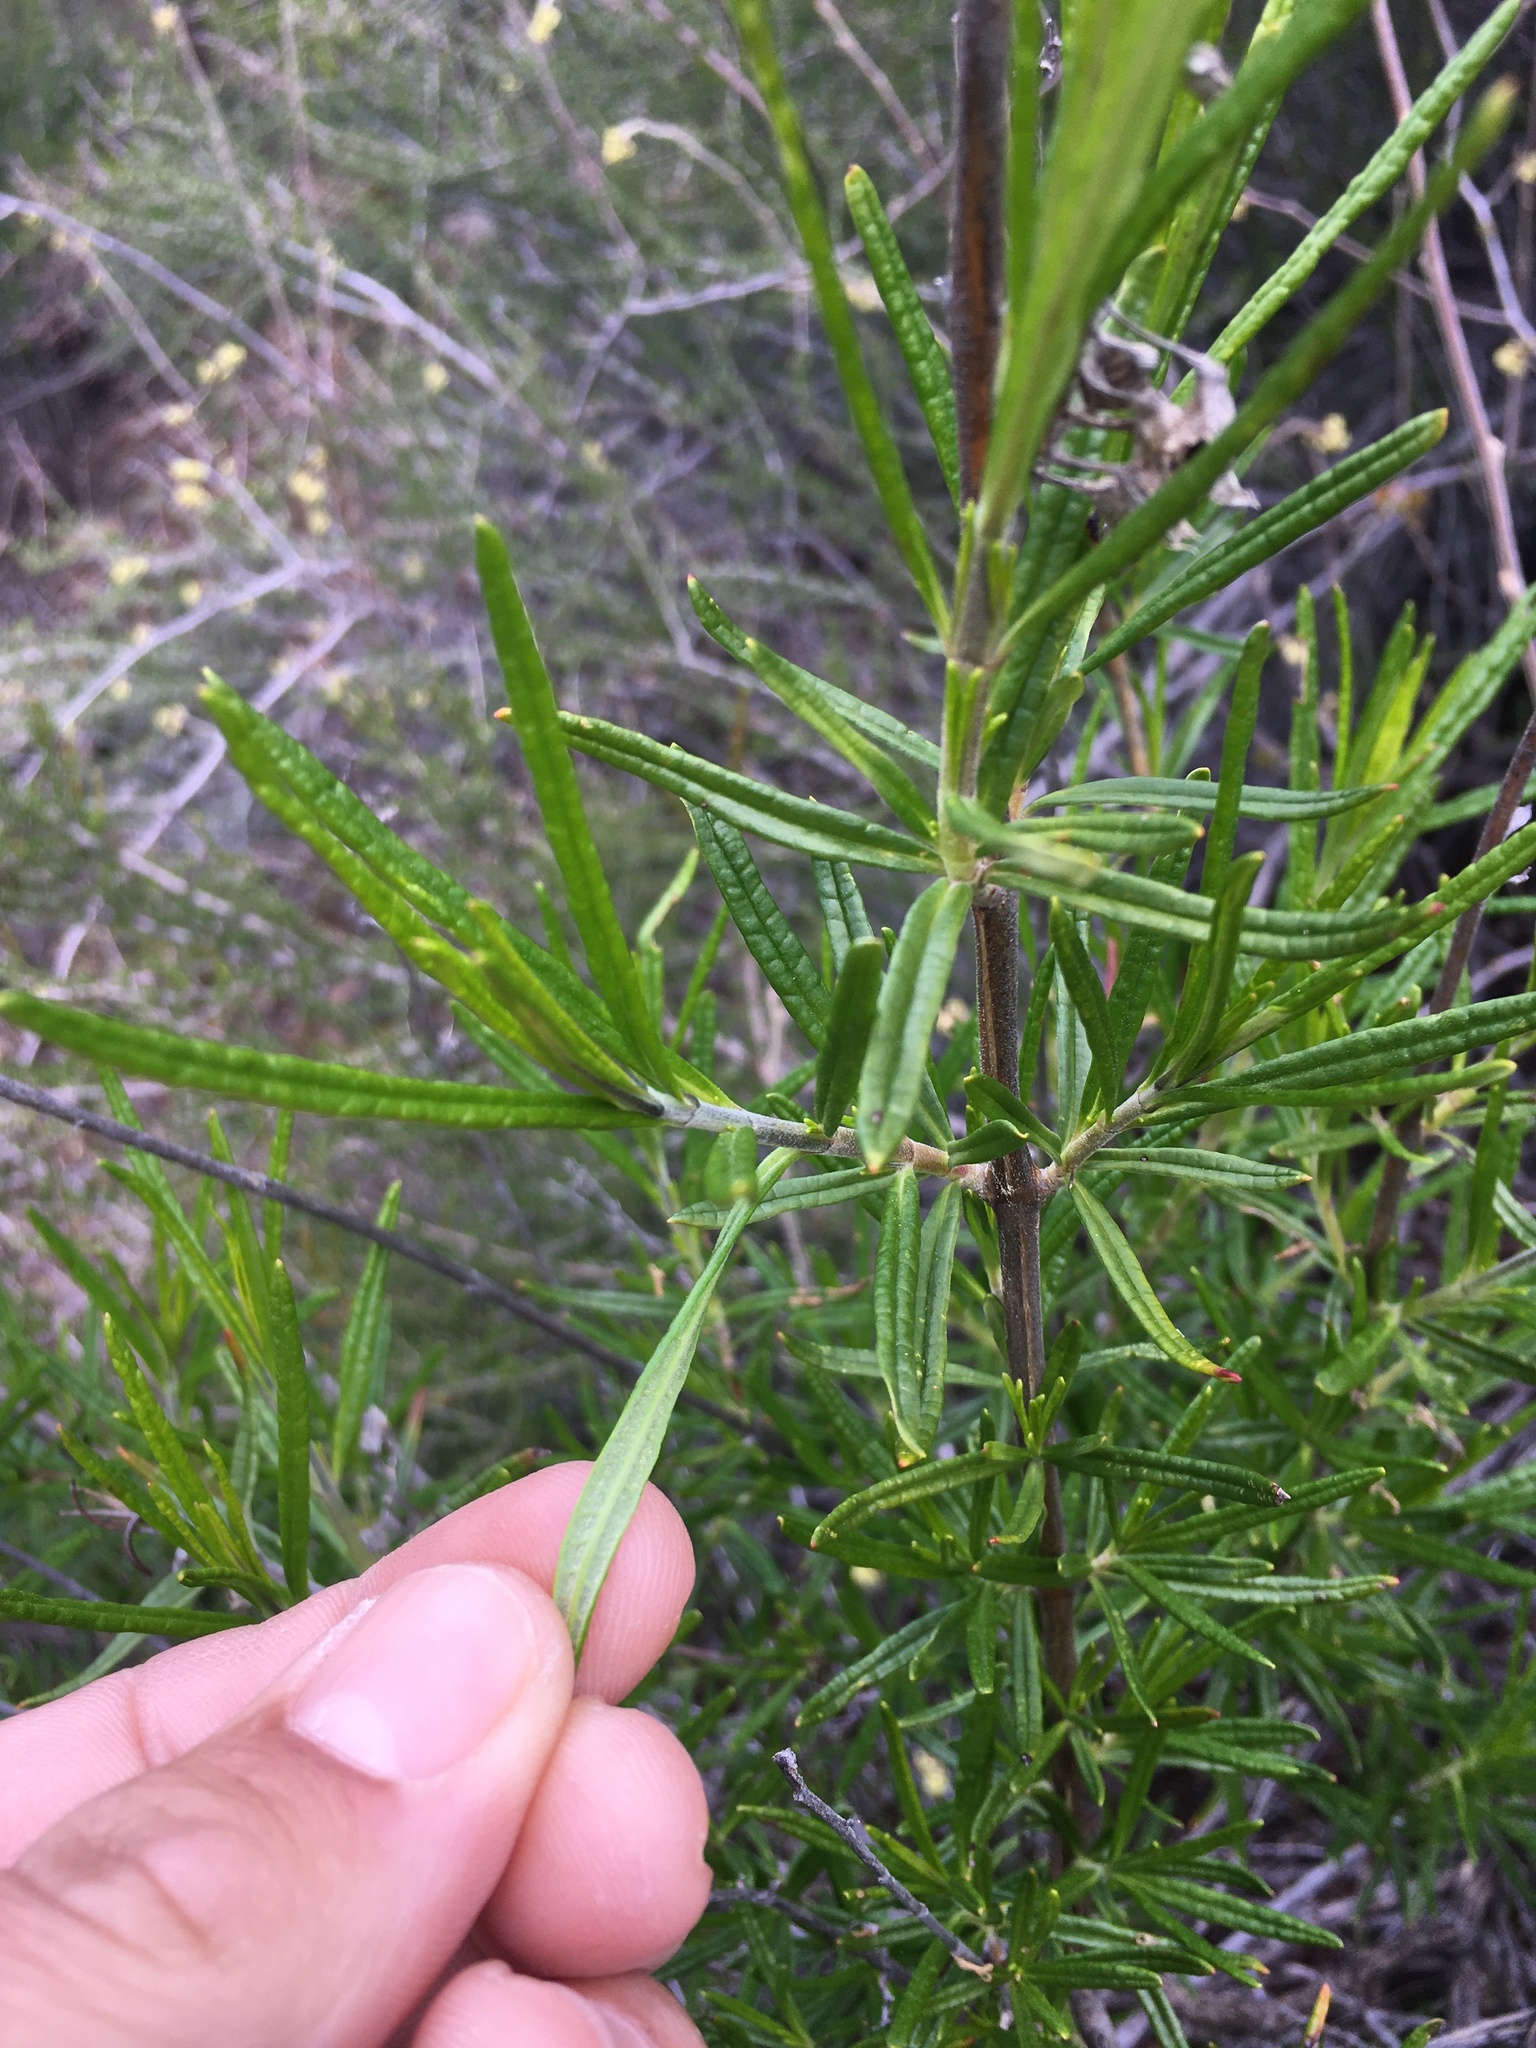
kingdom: Plantae
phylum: Tracheophyta
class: Magnoliopsida
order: Lamiales
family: Lamiaceae
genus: Trichostema
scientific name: Trichostema lanatum
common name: Woolly bluecurls
